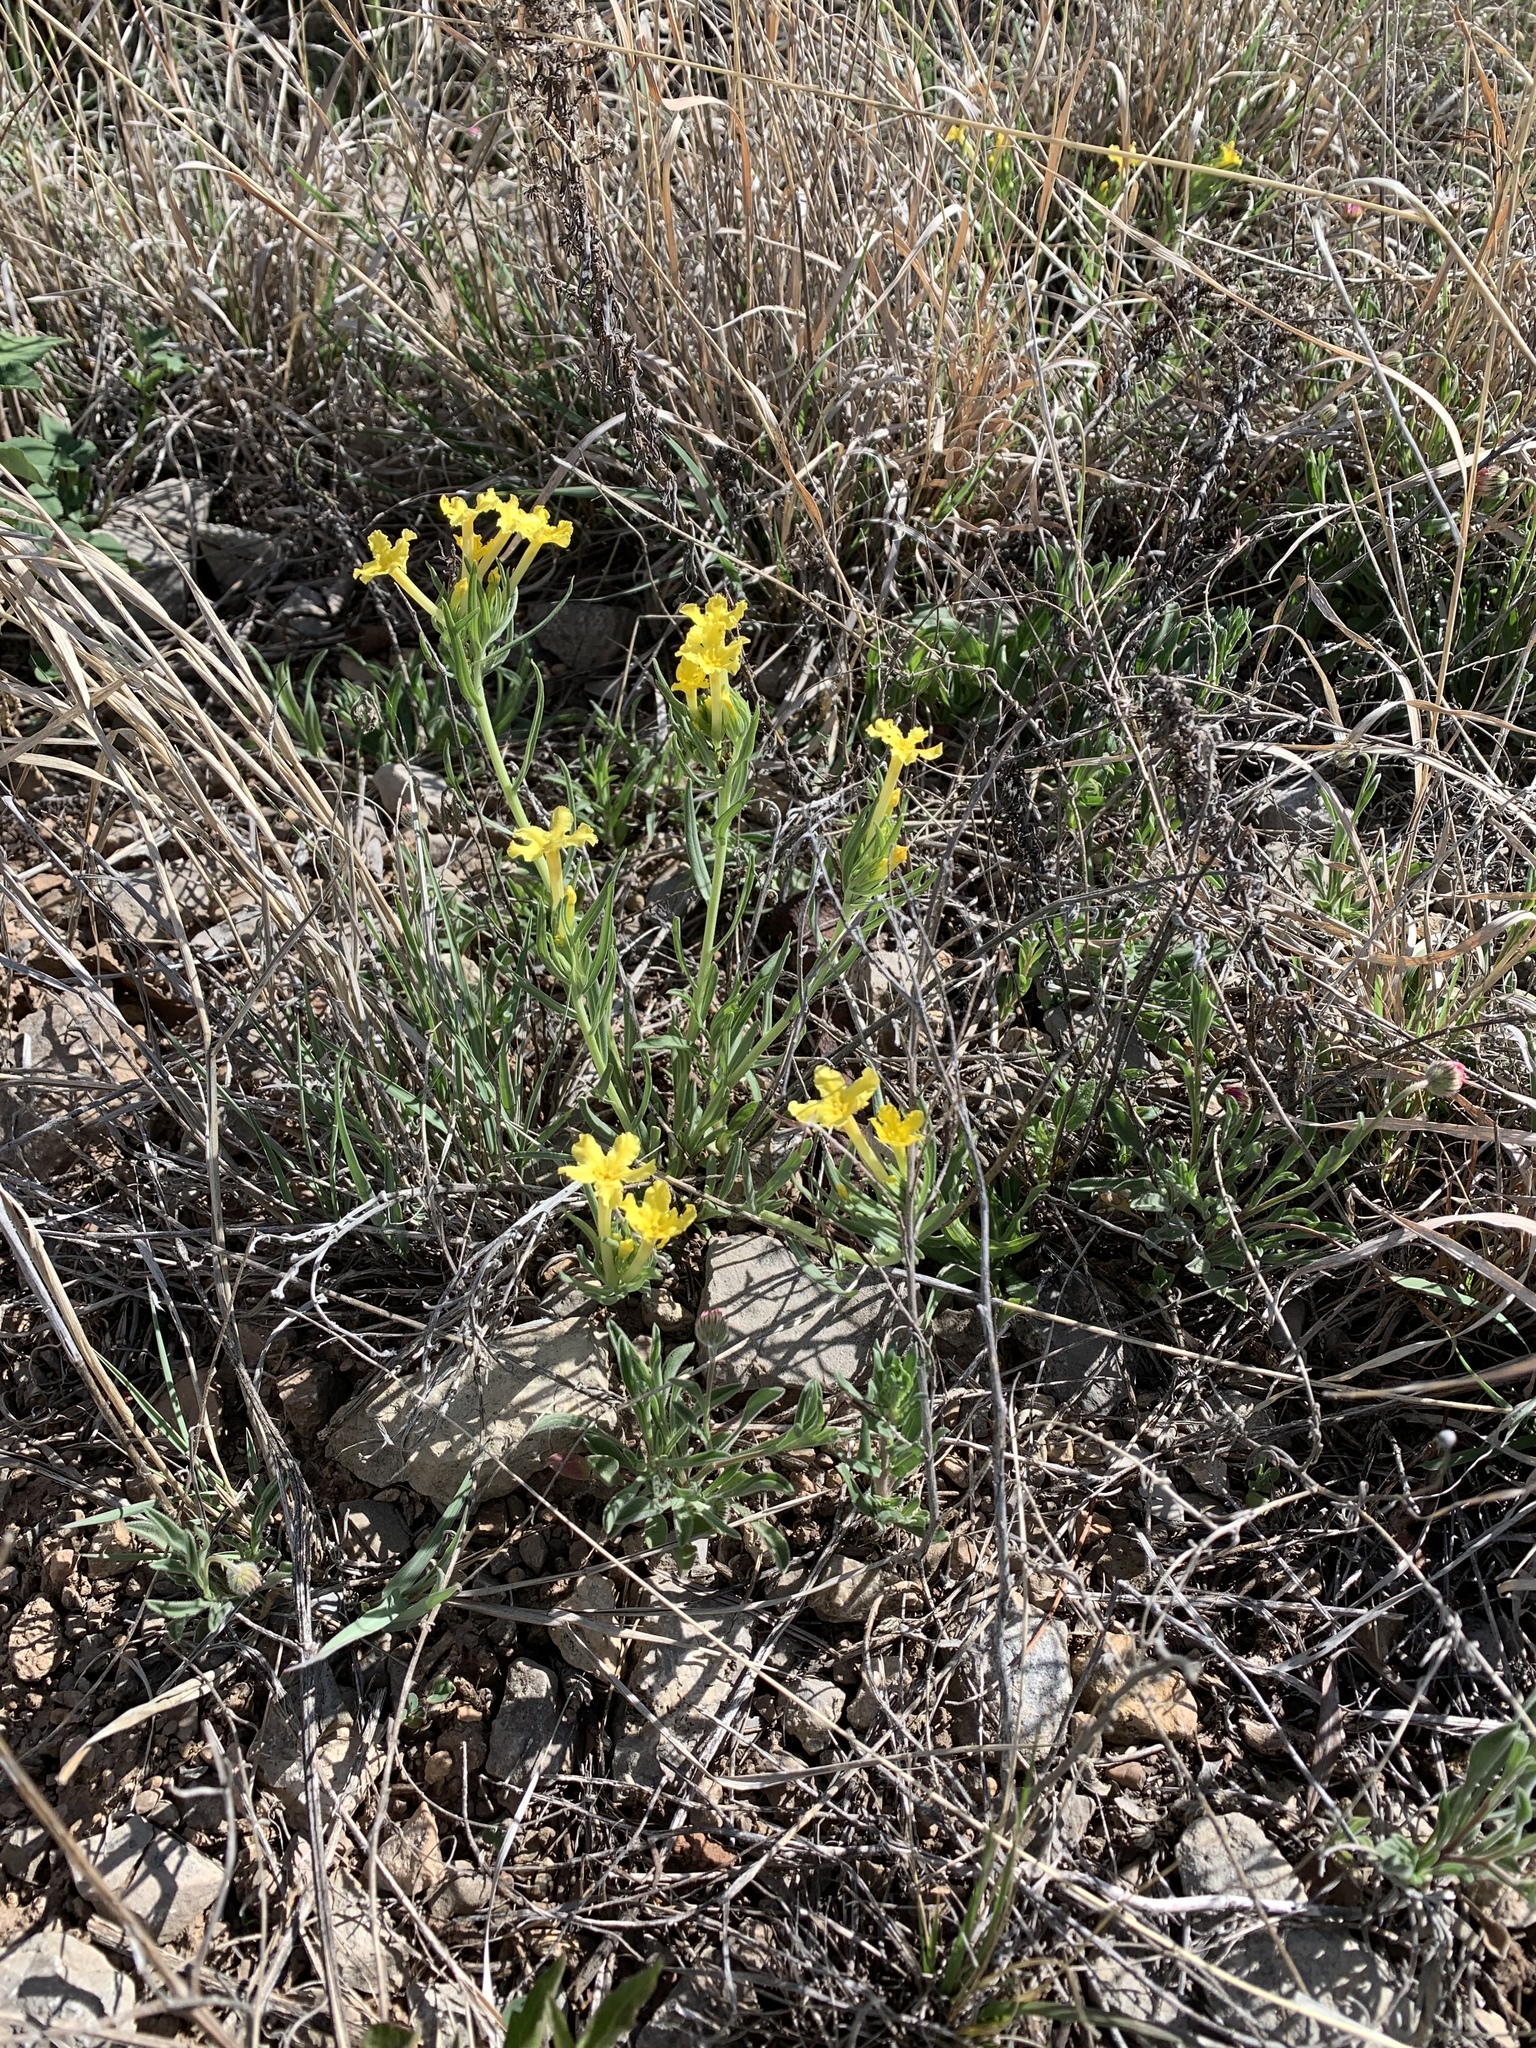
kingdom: Plantae
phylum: Tracheophyta
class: Magnoliopsida
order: Boraginales
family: Boraginaceae
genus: Lithospermum
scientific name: Lithospermum incisum
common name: Fringed gromwell
